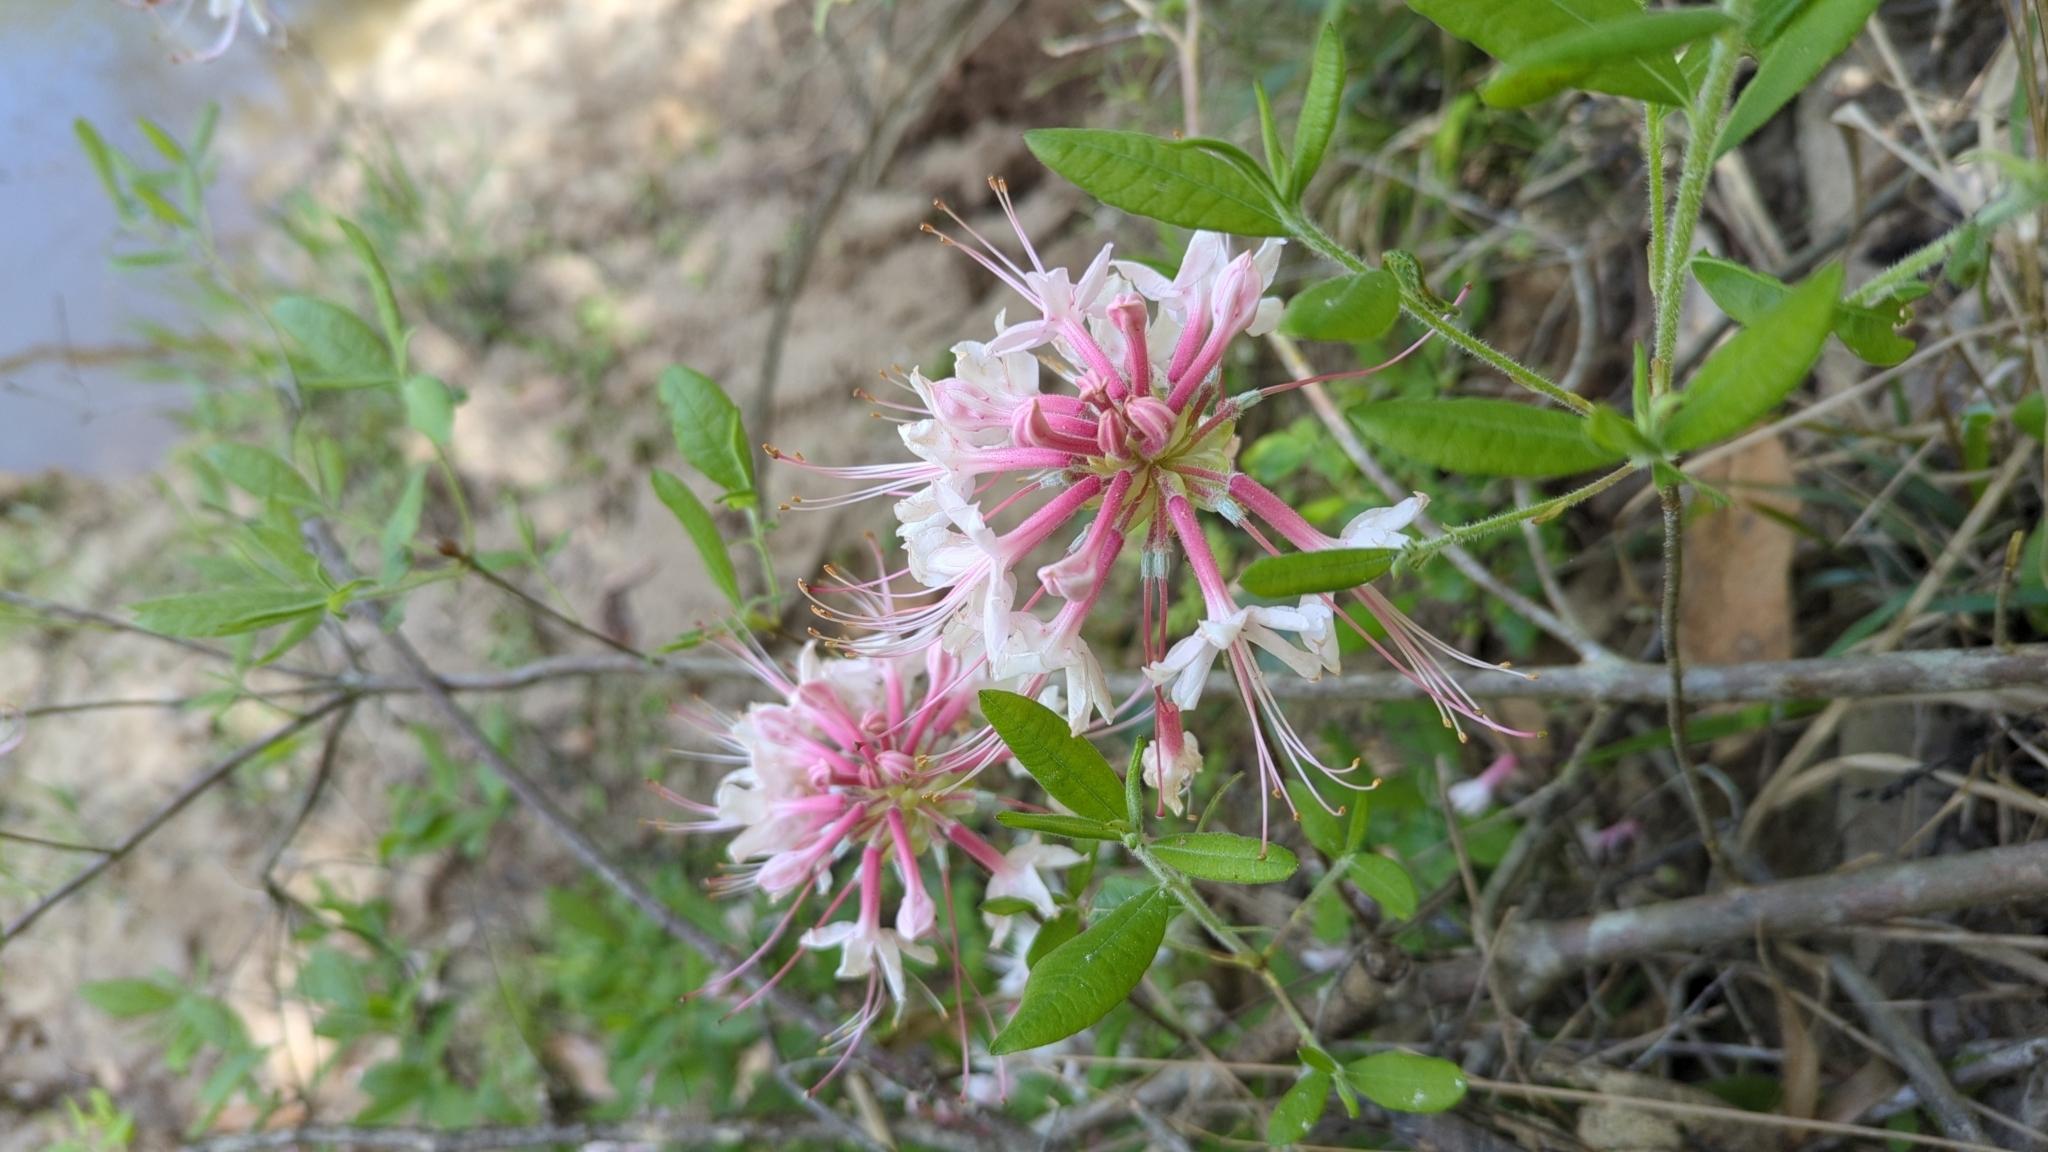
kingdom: Plantae
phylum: Tracheophyta
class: Magnoliopsida
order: Ericales
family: Ericaceae
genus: Rhododendron
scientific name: Rhododendron canescens
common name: Mountain azalea
